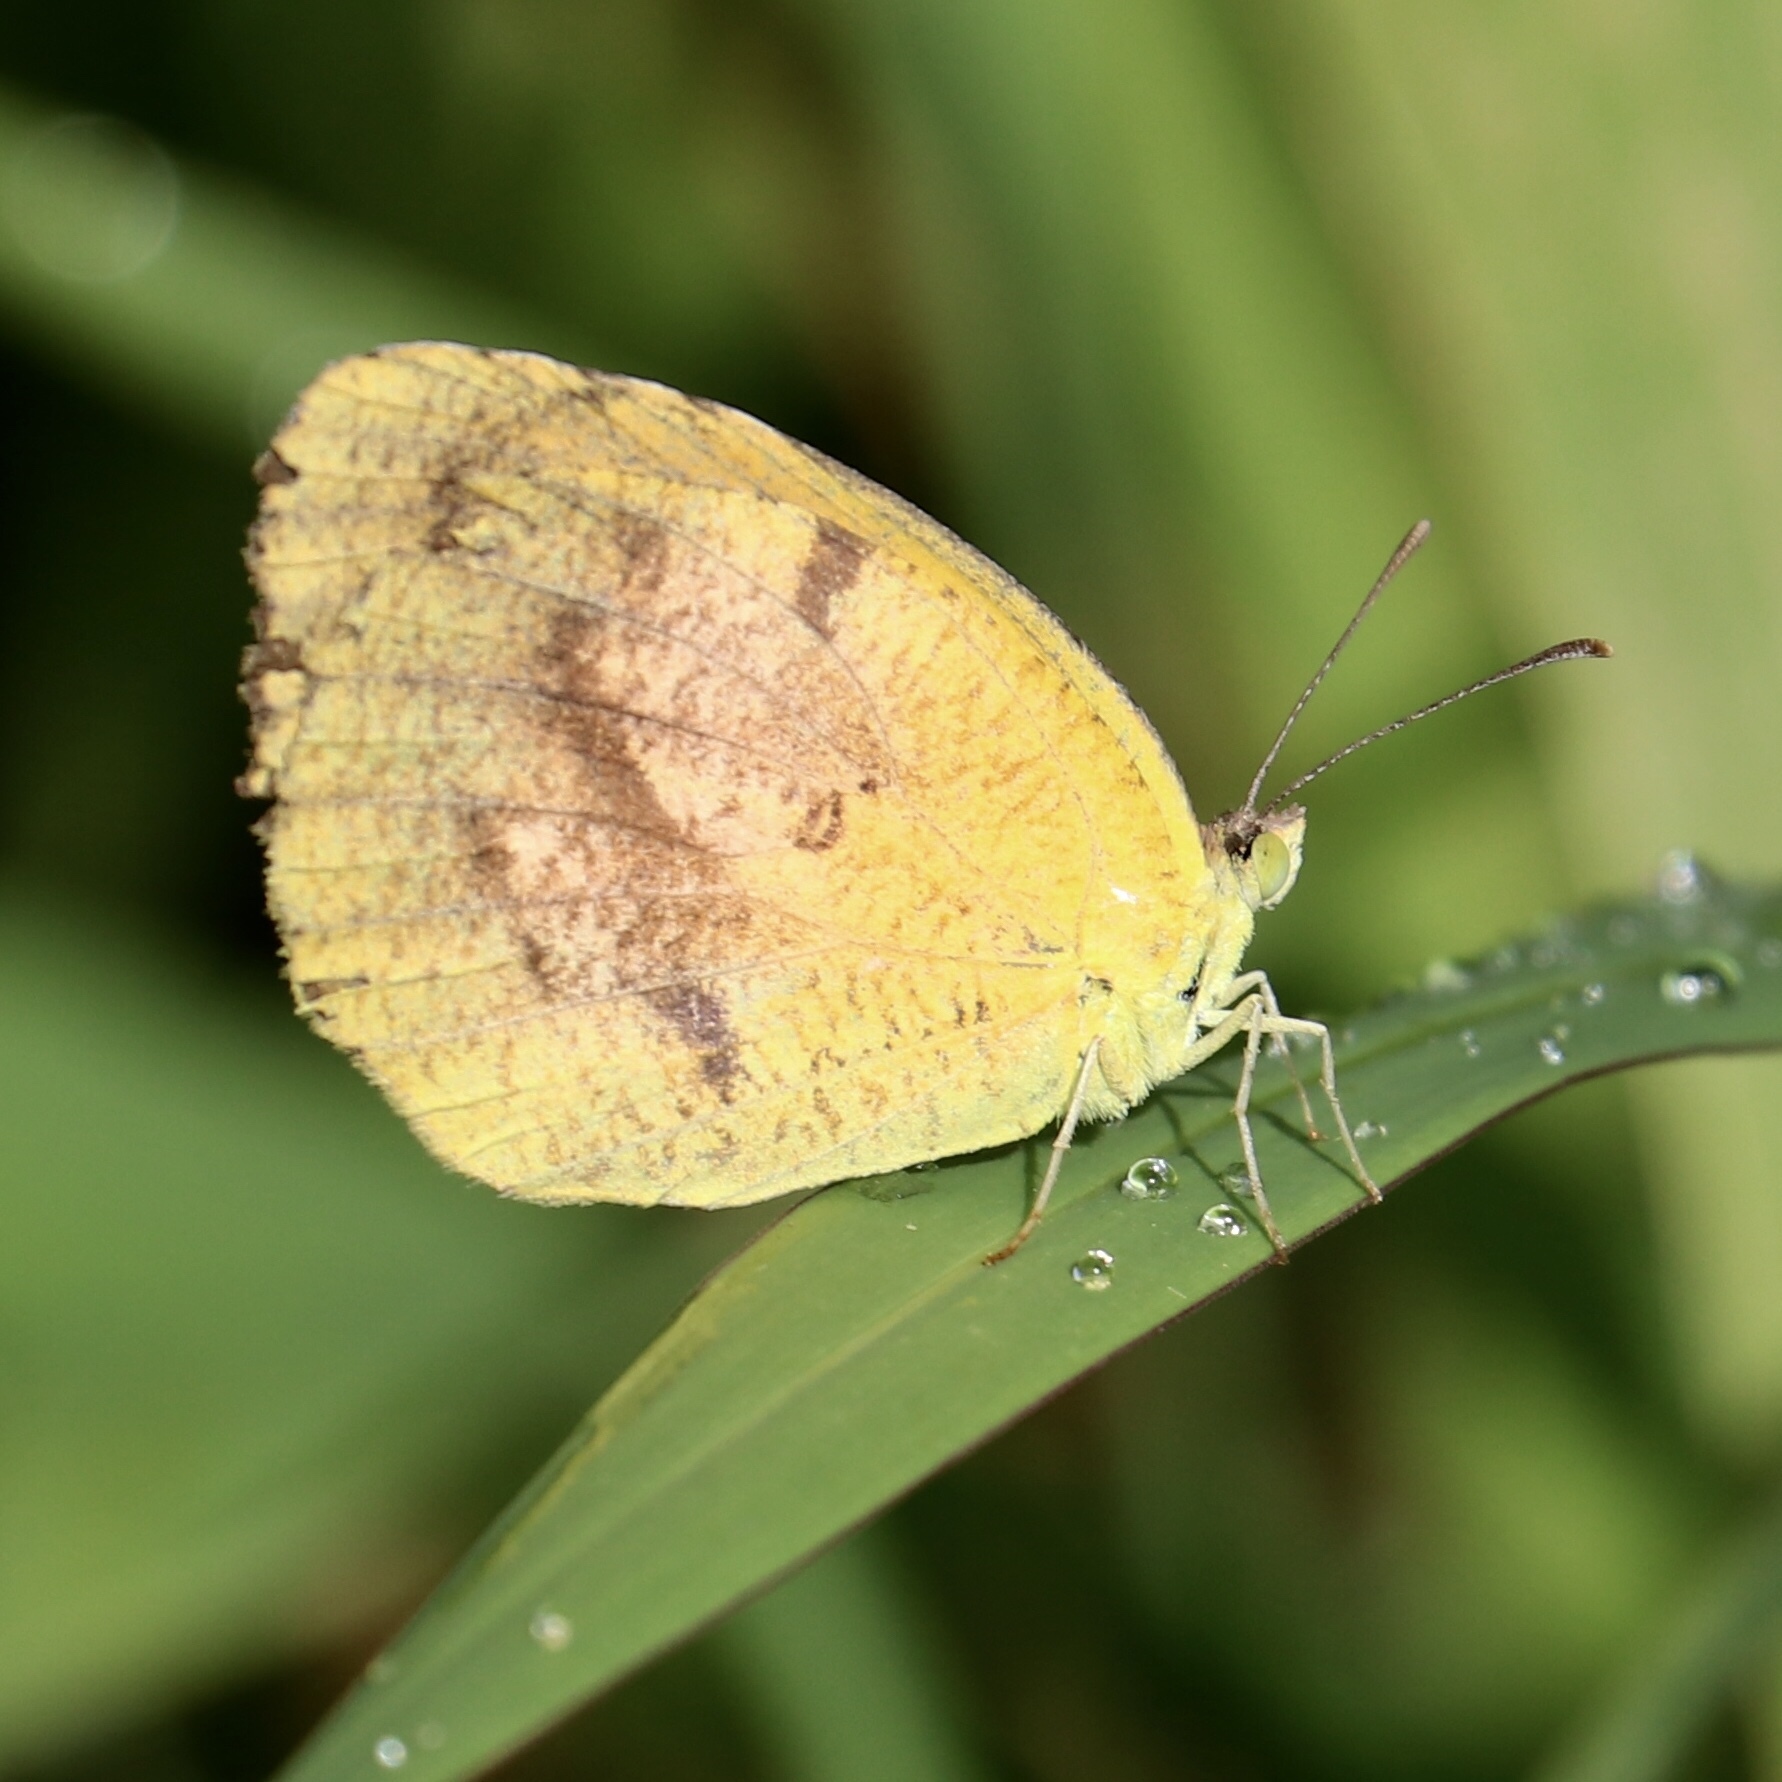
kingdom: Animalia
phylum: Arthropoda
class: Insecta
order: Lepidoptera
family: Pieridae
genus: Abaeis
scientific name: Abaeis nicippe
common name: Sleepy orange
